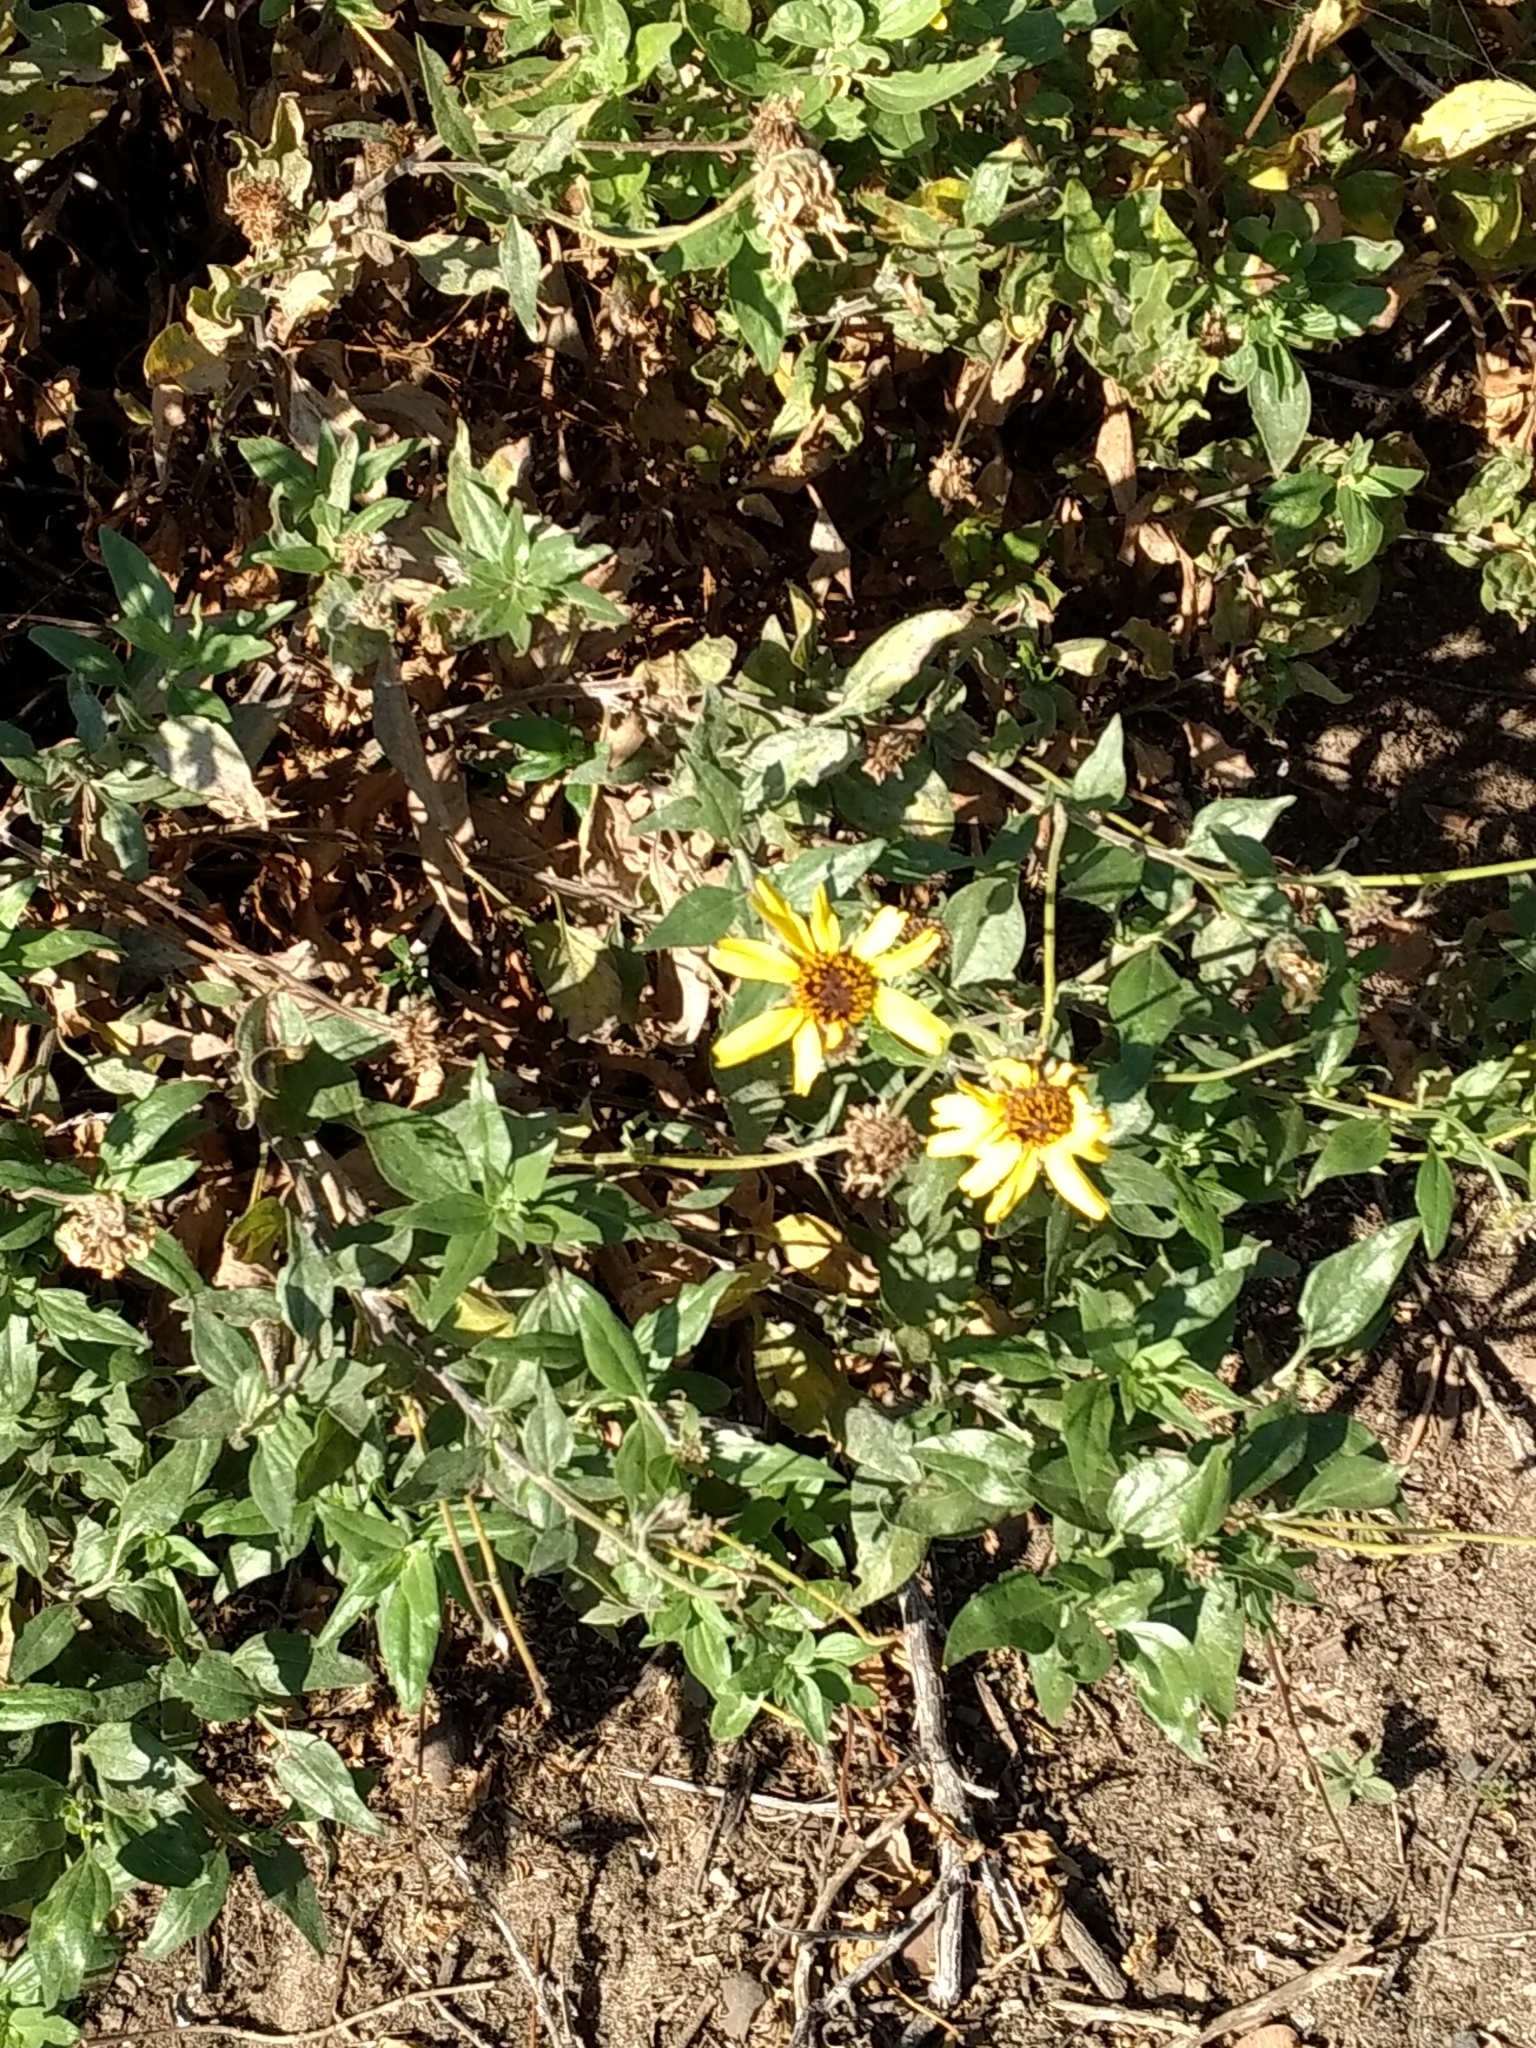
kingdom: Plantae
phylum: Tracheophyta
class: Magnoliopsida
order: Asterales
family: Asteraceae
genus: Encelia
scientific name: Encelia californica
